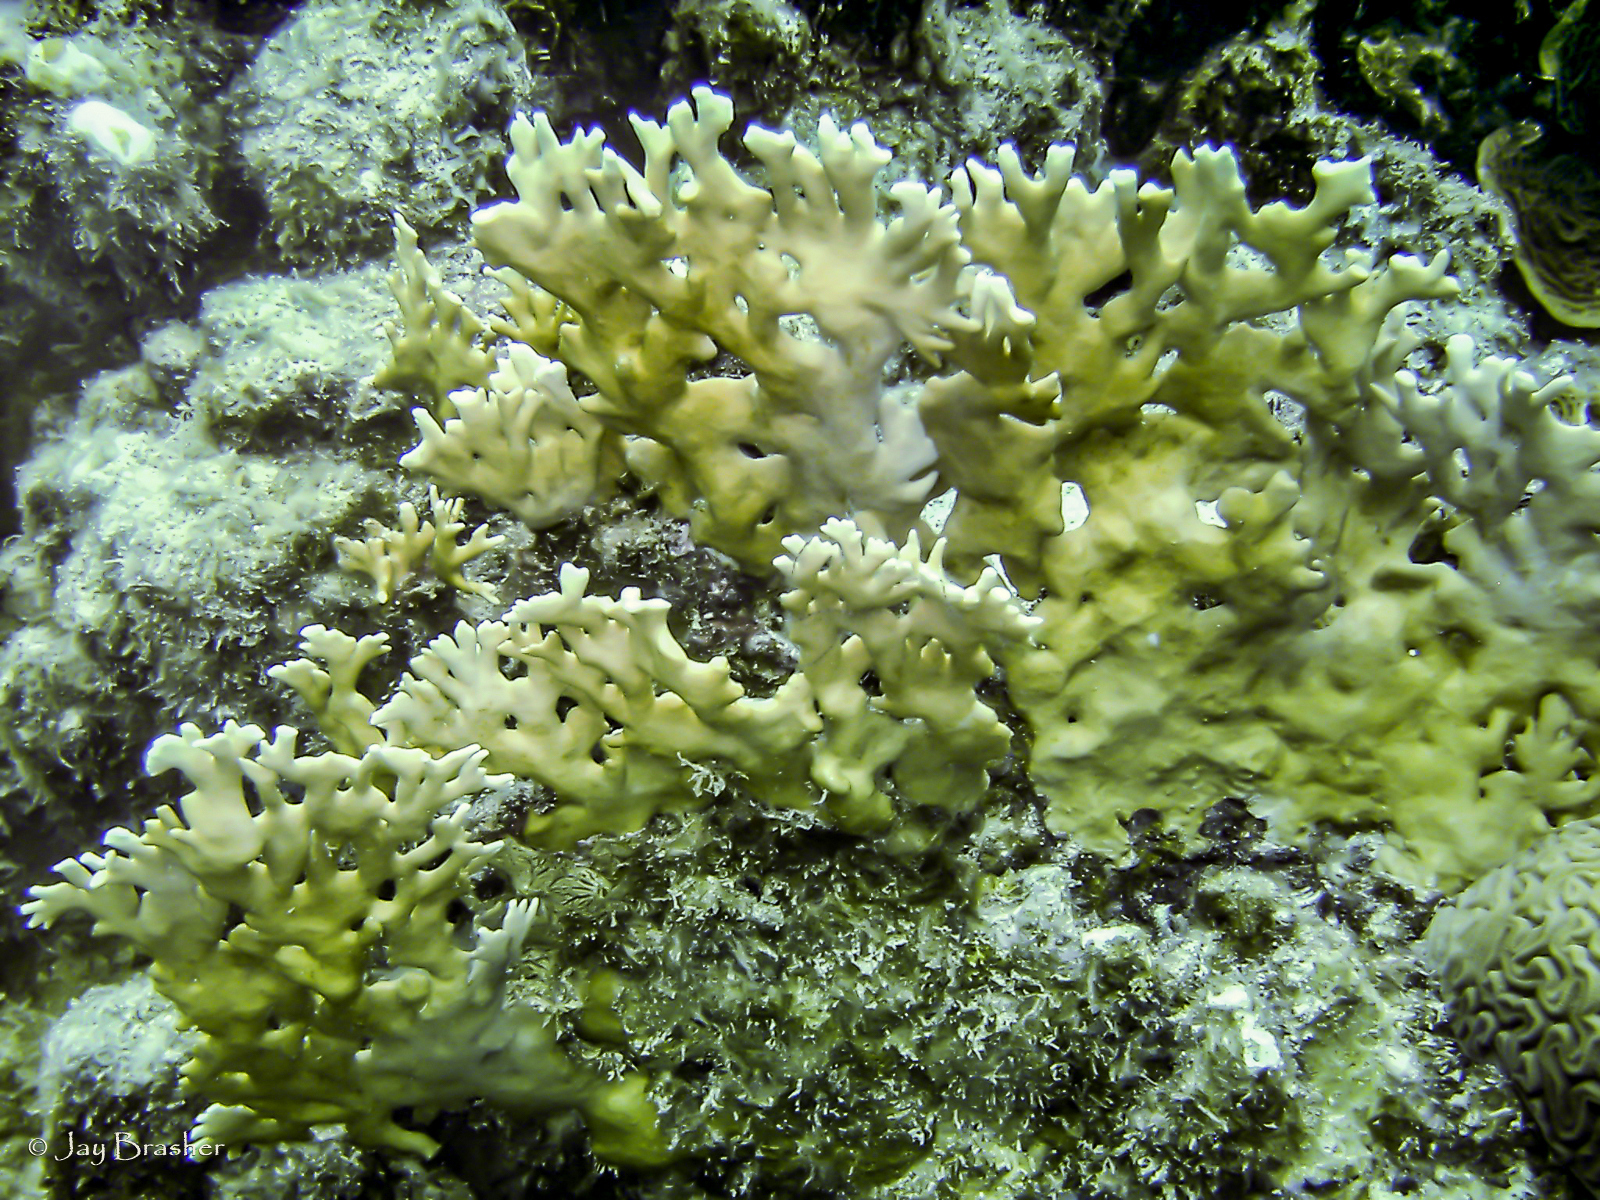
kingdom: Animalia
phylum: Cnidaria
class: Hydrozoa
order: Anthoathecata
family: Milleporidae
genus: Millepora
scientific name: Millepora alcicornis
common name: Branching fire coral
